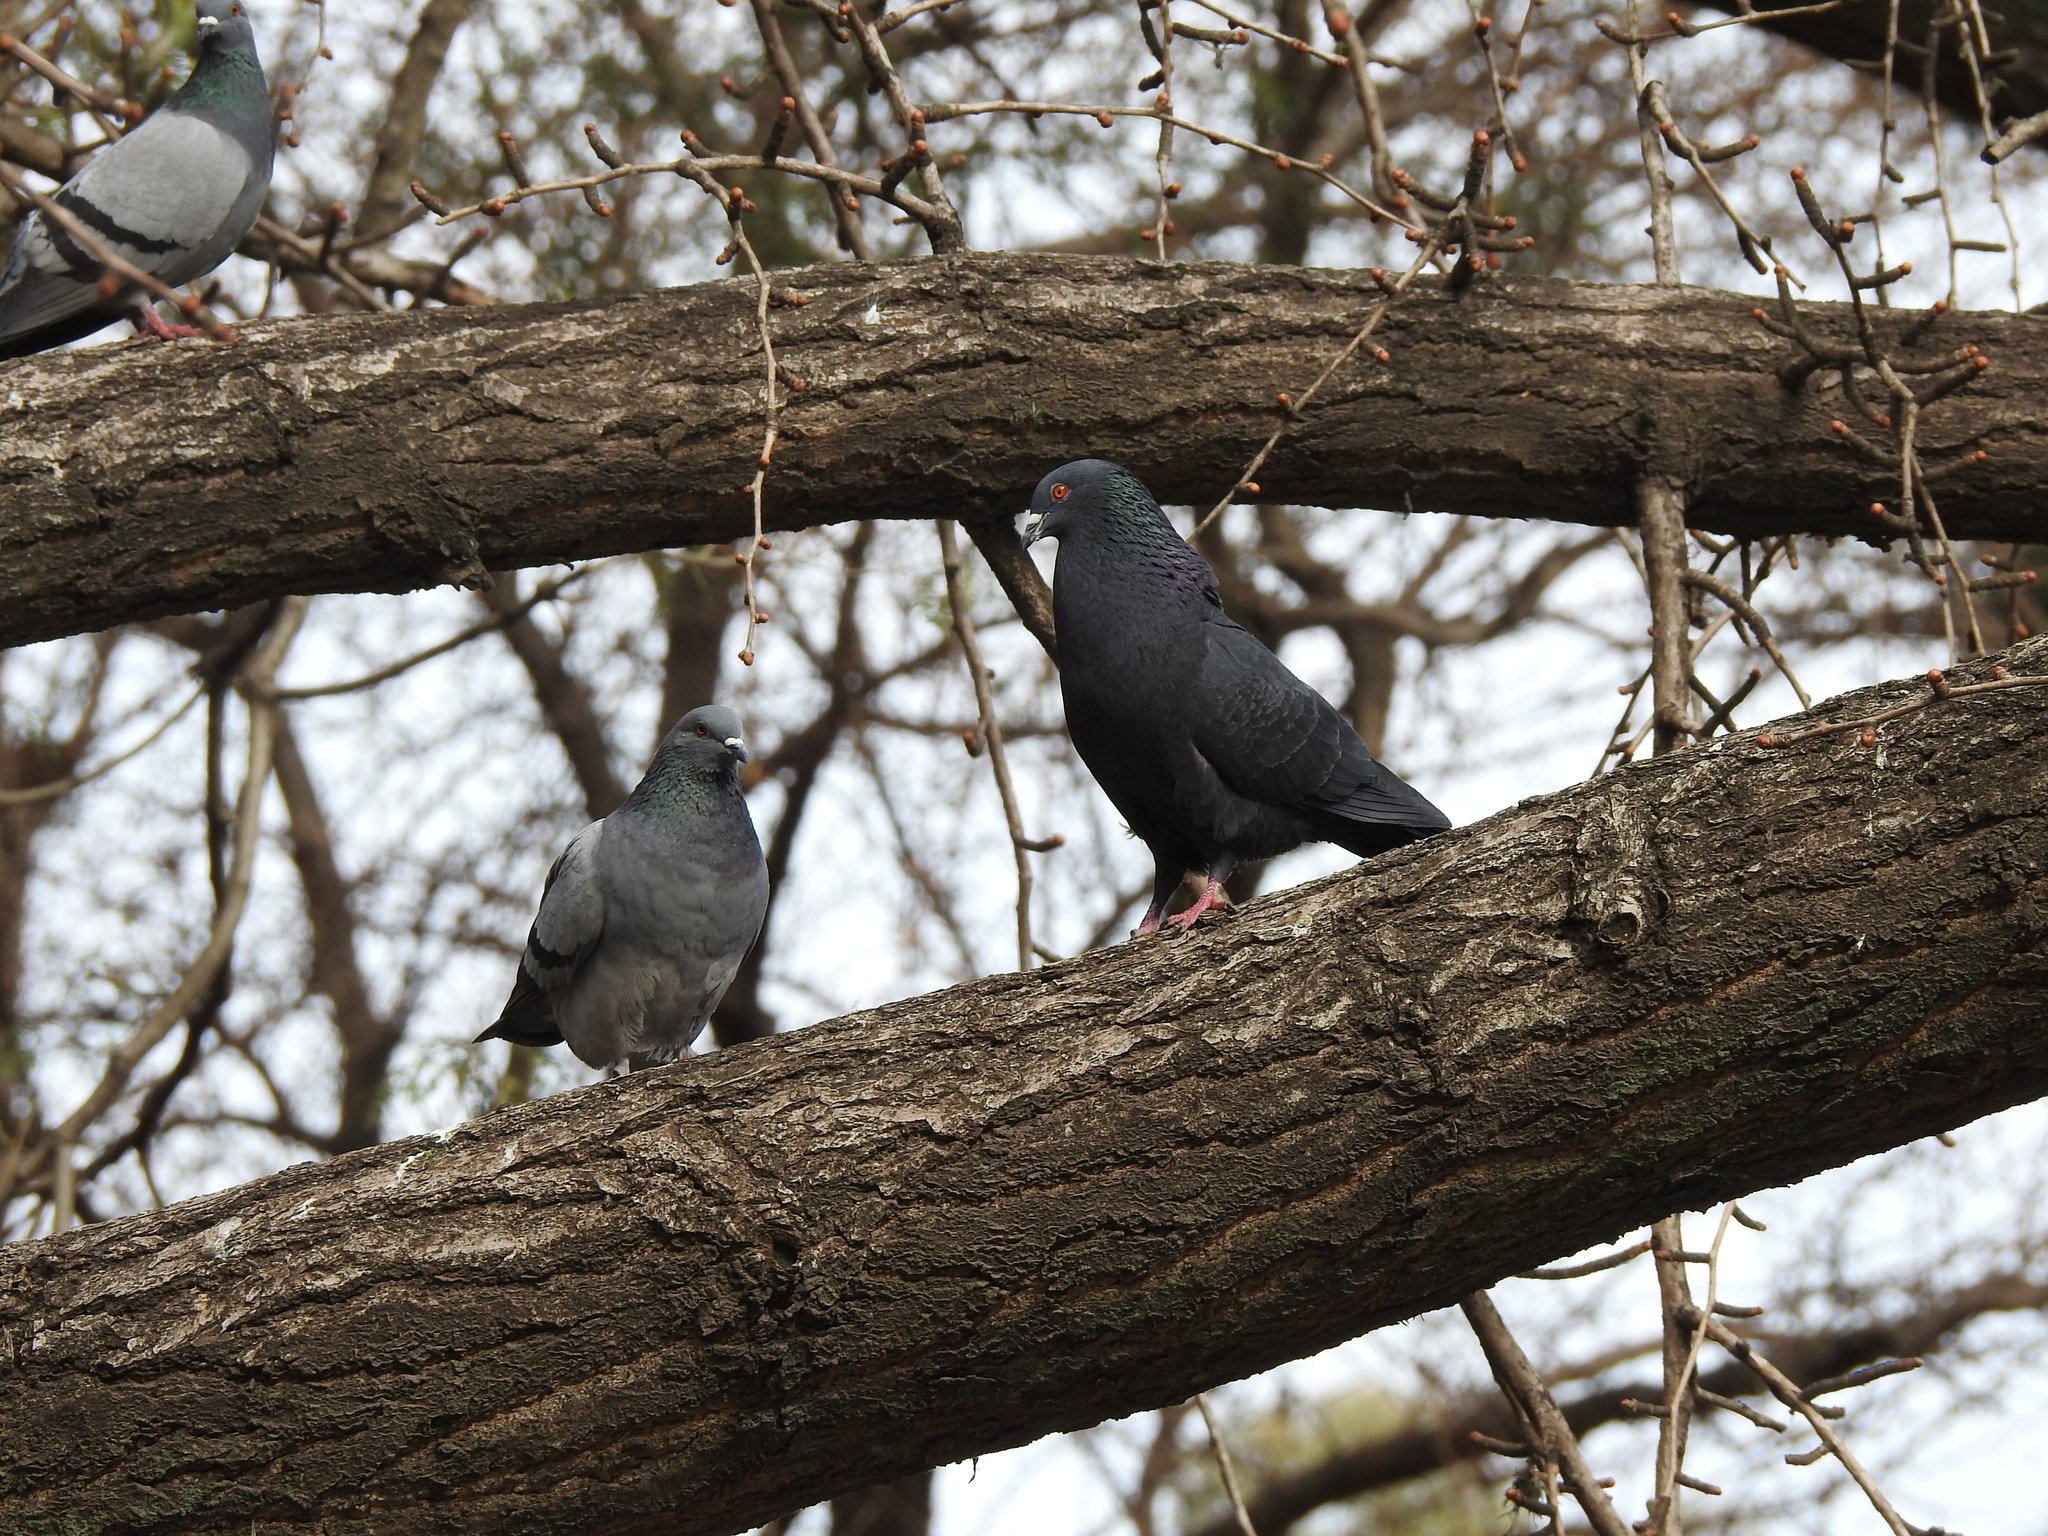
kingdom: Animalia
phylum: Chordata
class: Aves
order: Columbiformes
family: Columbidae
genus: Columba
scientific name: Columba livia
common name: Rock pigeon
